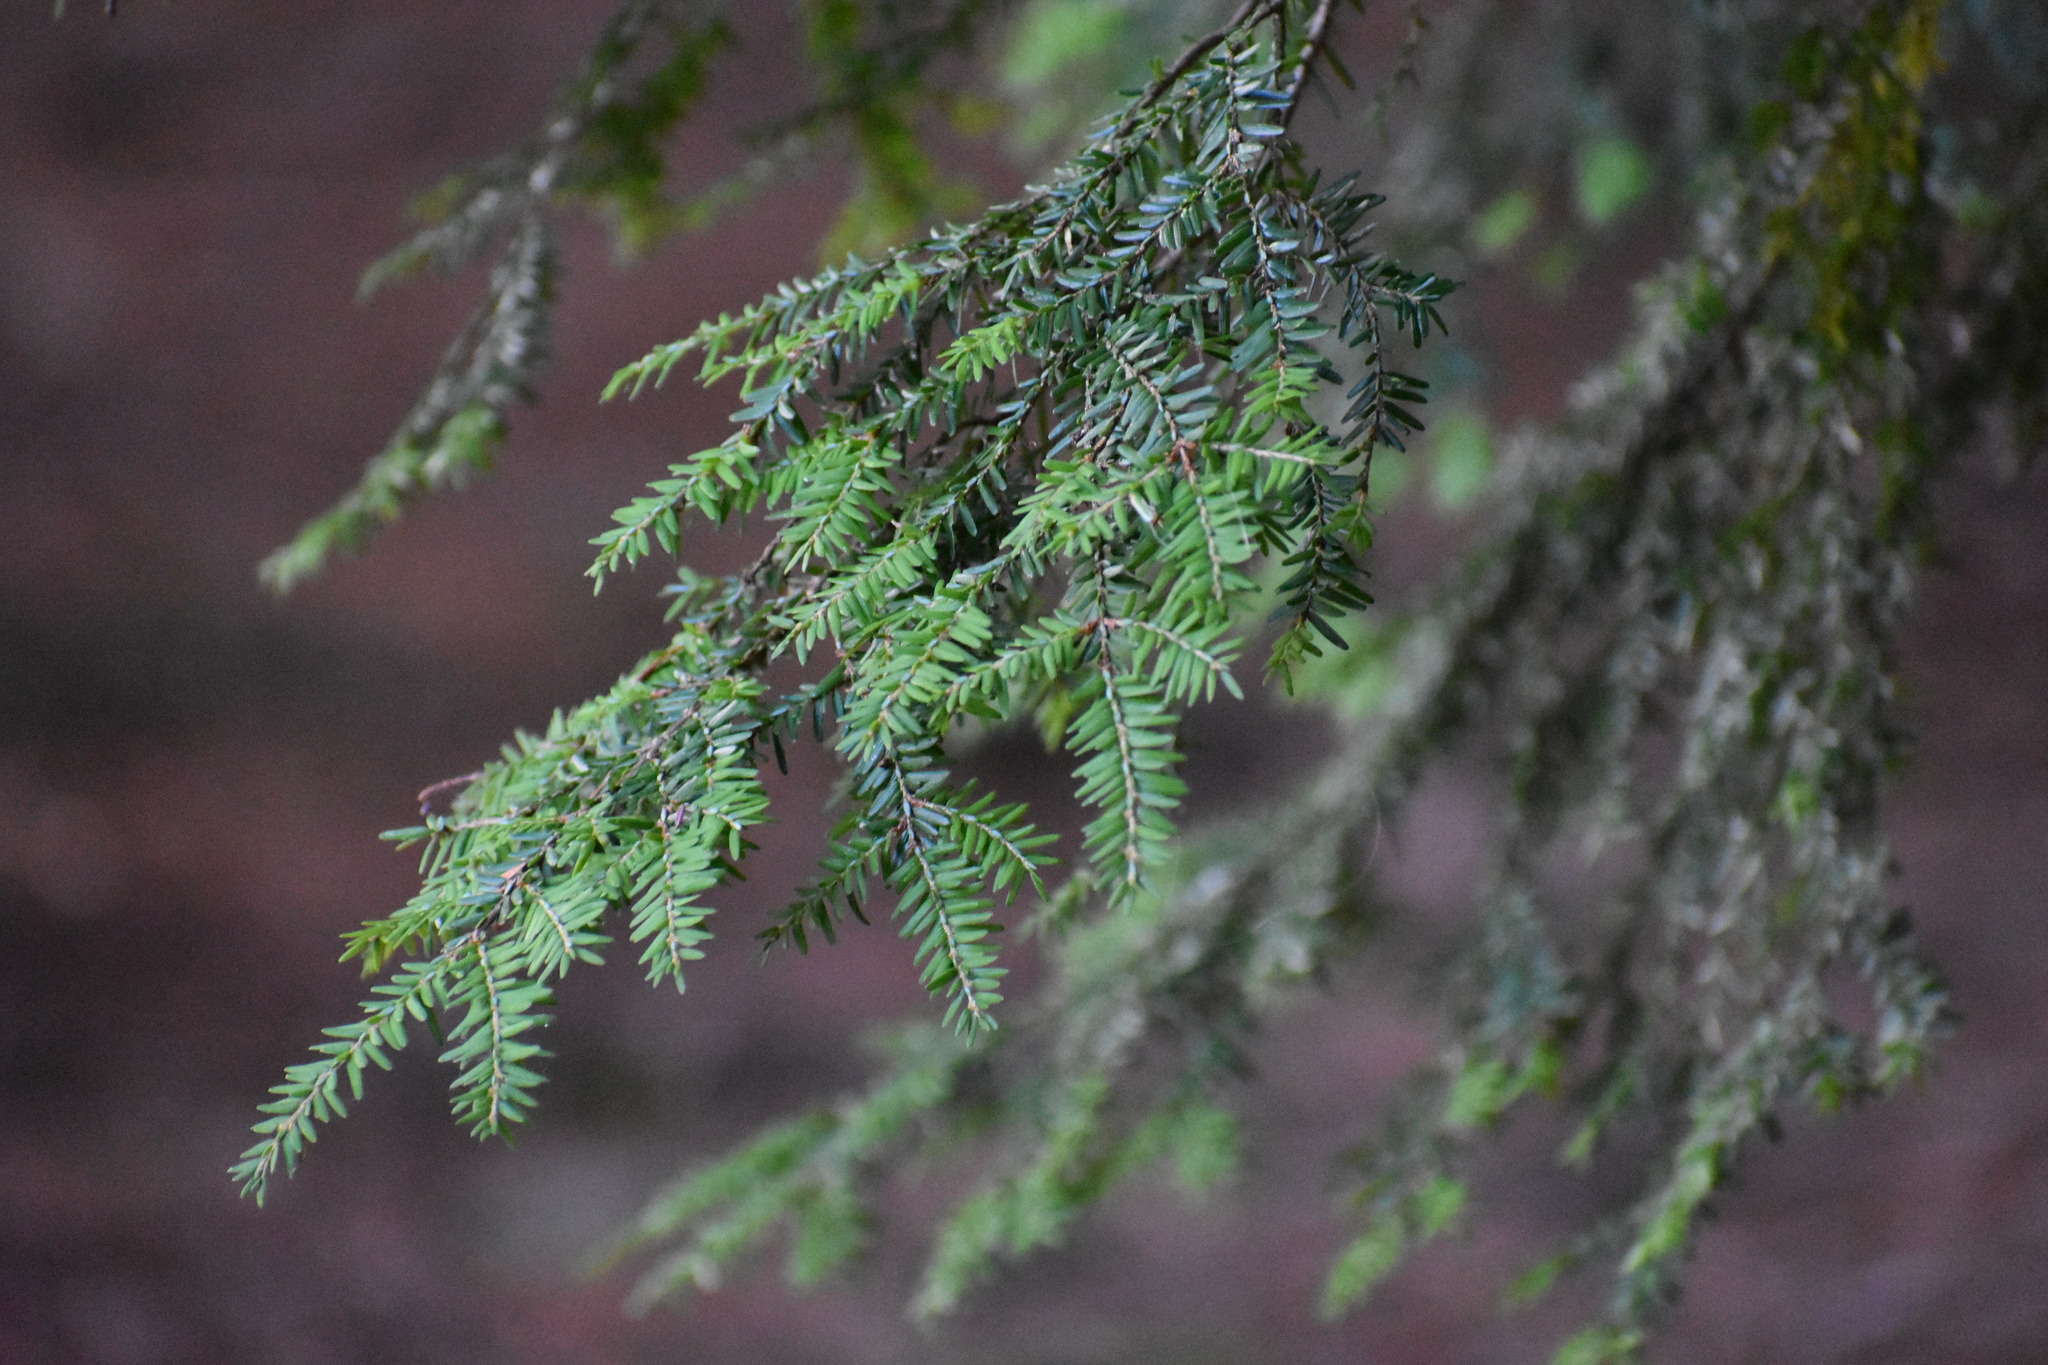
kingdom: Plantae
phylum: Tracheophyta
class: Pinopsida
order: Pinales
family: Pinaceae
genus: Tsuga
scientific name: Tsuga canadensis
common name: Eastern hemlock
